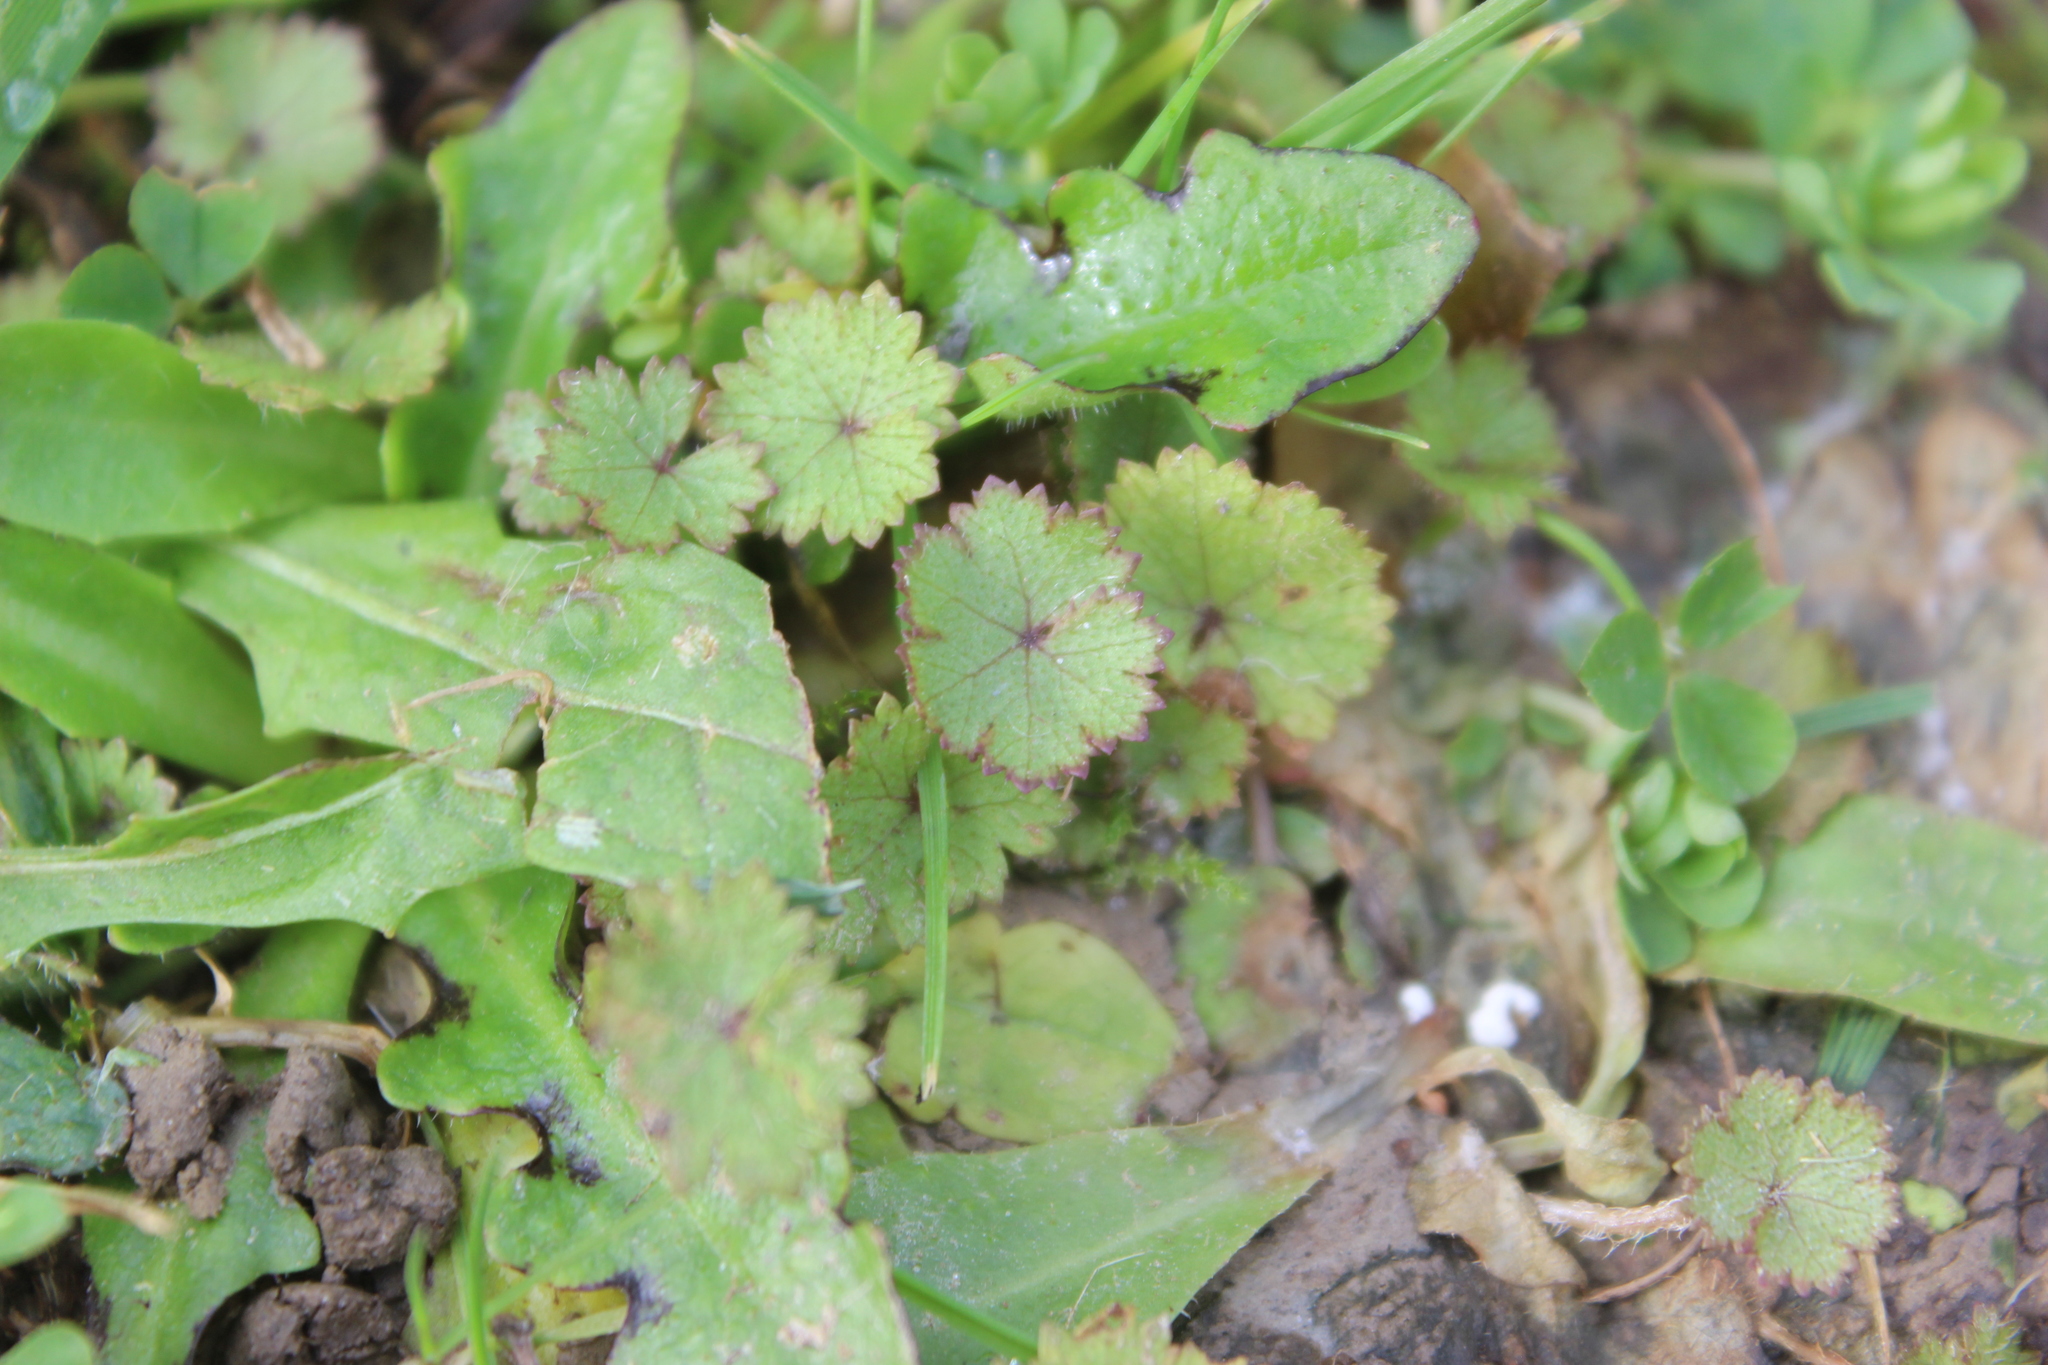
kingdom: Plantae
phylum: Tracheophyta
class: Magnoliopsida
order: Apiales
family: Araliaceae
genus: Hydrocotyle
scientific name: Hydrocotyle moschata
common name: Hairy pennywort
